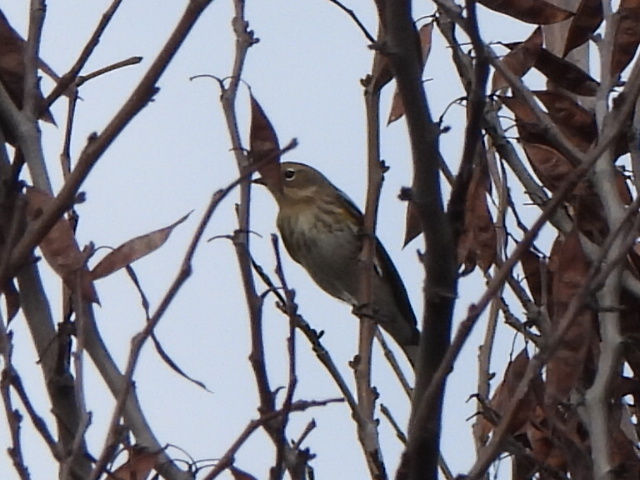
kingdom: Animalia
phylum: Chordata
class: Aves
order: Passeriformes
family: Parulidae
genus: Setophaga
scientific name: Setophaga coronata
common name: Myrtle warbler
